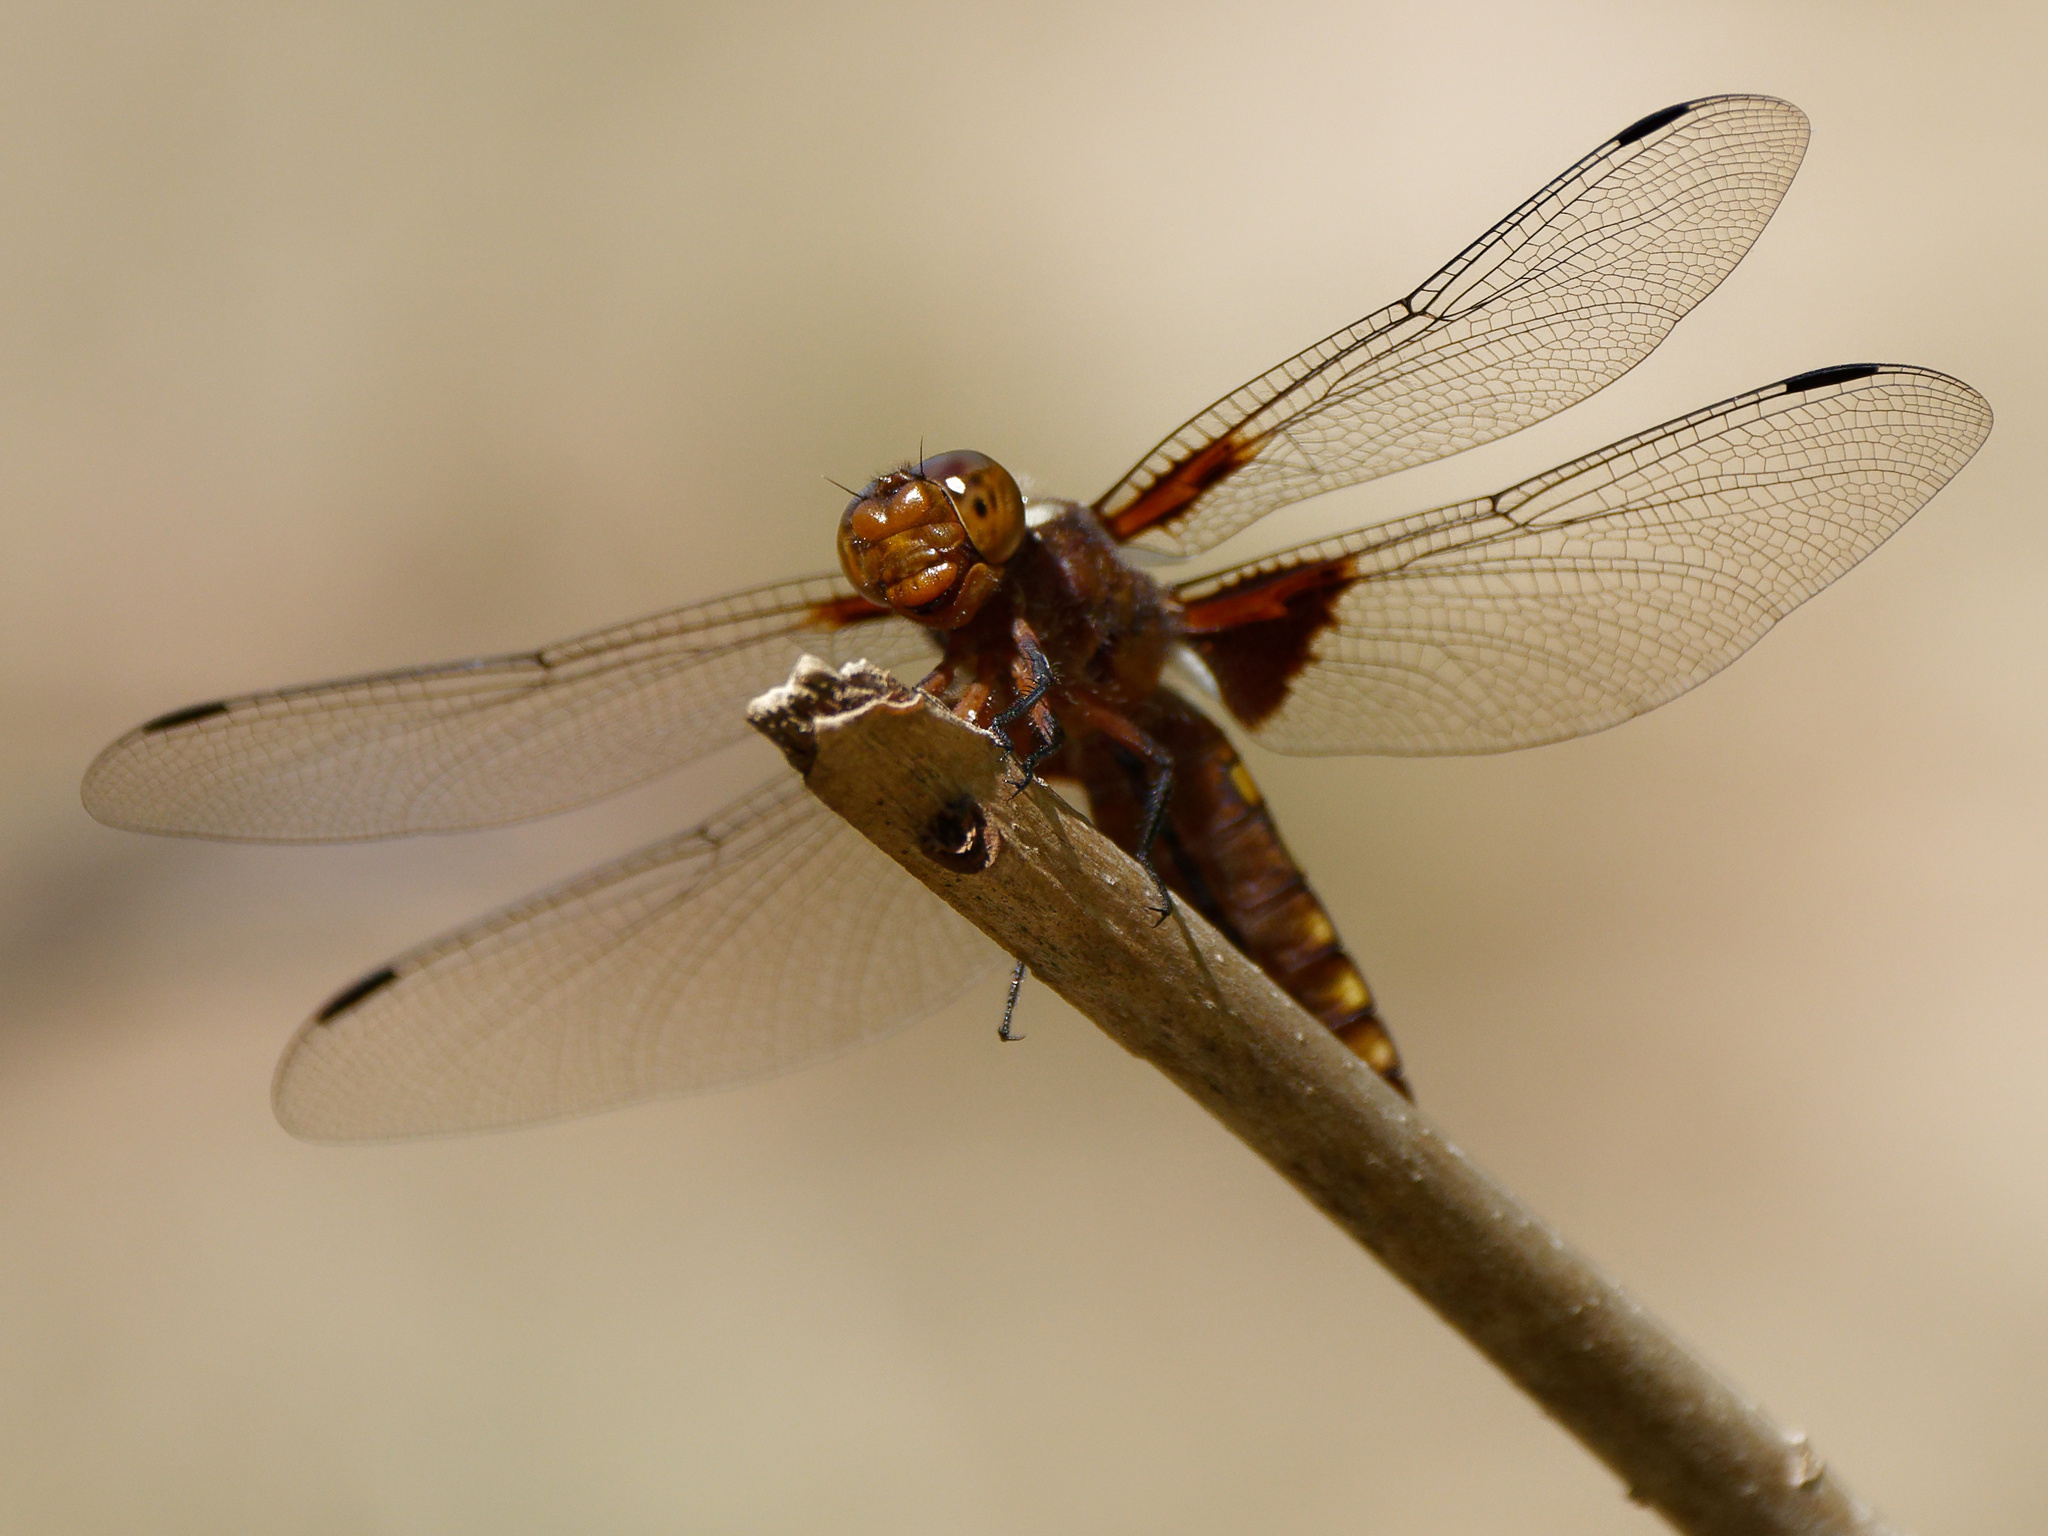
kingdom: Animalia
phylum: Arthropoda
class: Insecta
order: Odonata
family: Libellulidae
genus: Libellula
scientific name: Libellula depressa
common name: Broad-bodied chaser
